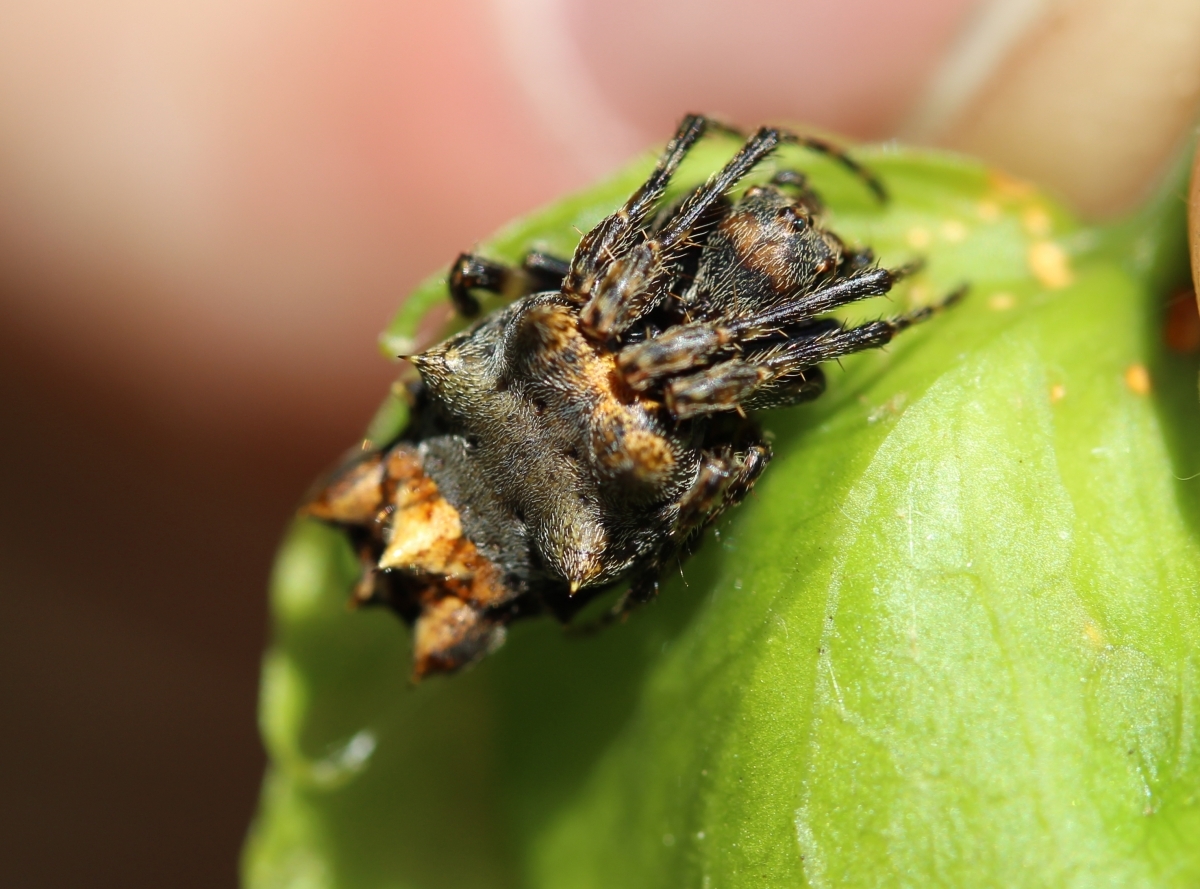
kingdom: Animalia
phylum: Arthropoda
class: Arachnida
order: Araneae
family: Araneidae
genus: Wagneriana
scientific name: Wagneriana carinata
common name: Orb weavers
